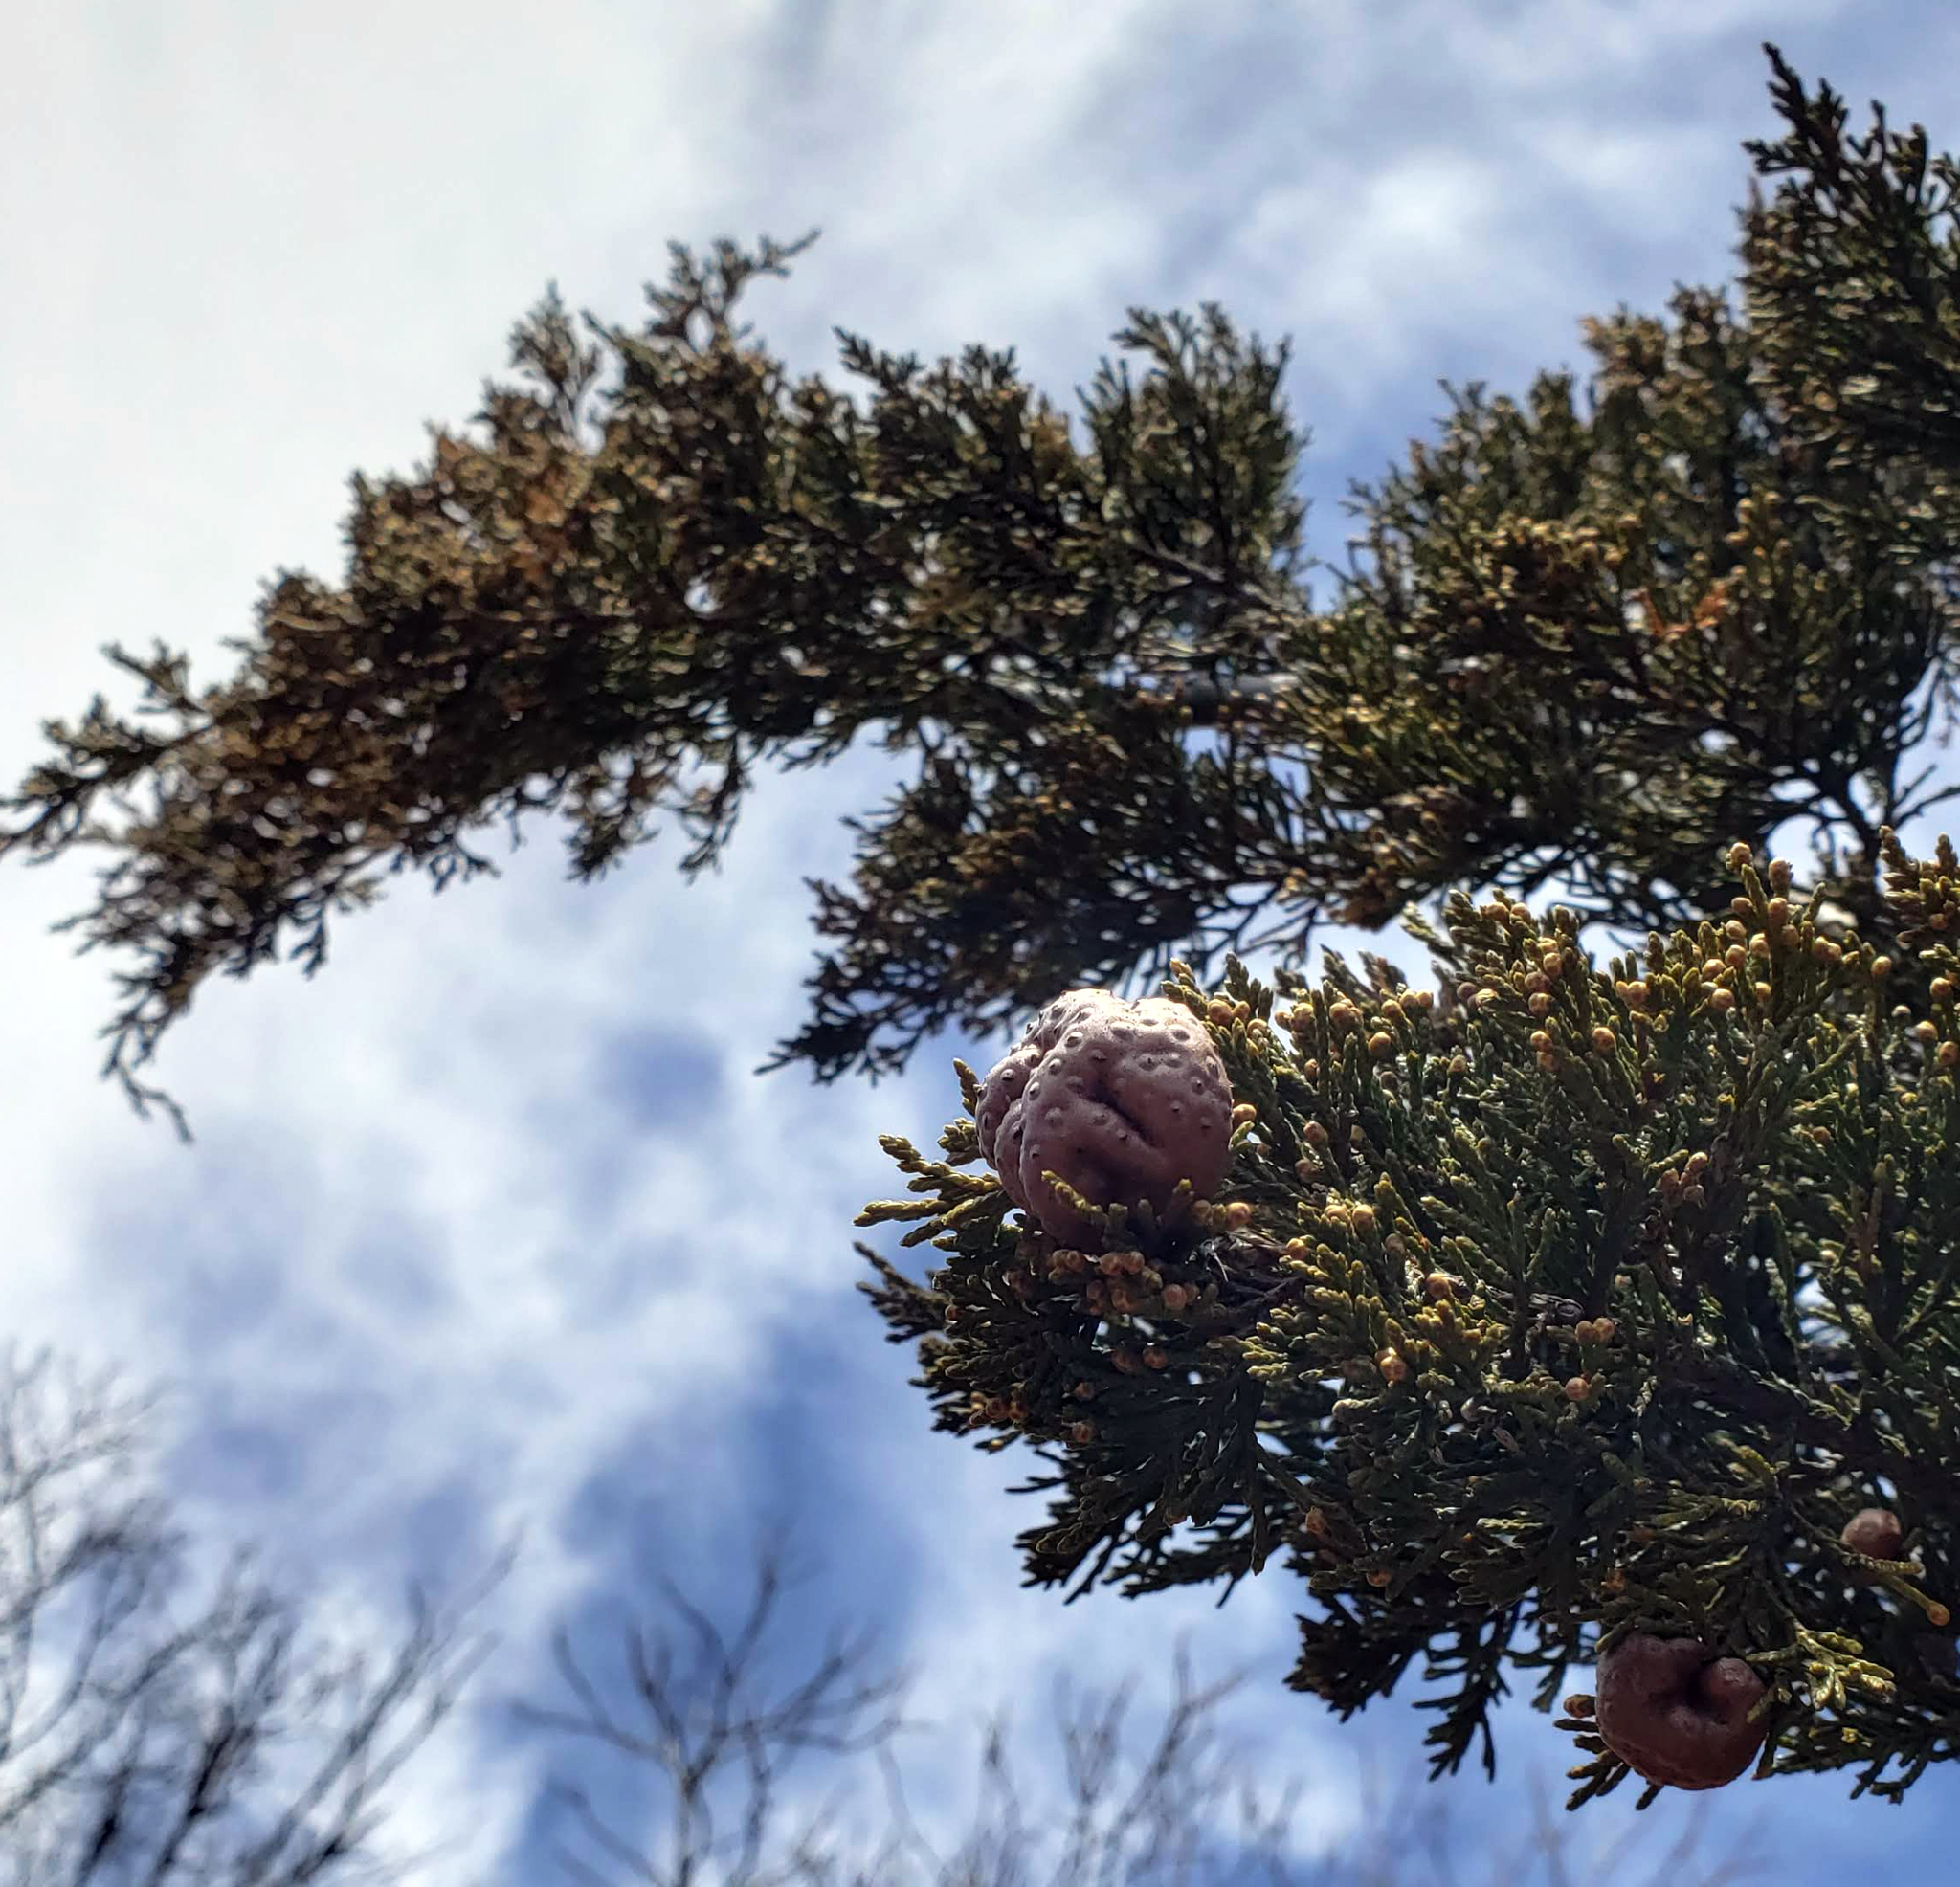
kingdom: Plantae
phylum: Tracheophyta
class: Pinopsida
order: Pinales
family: Cupressaceae
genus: Juniperus
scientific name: Juniperus virginiana
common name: Red juniper
